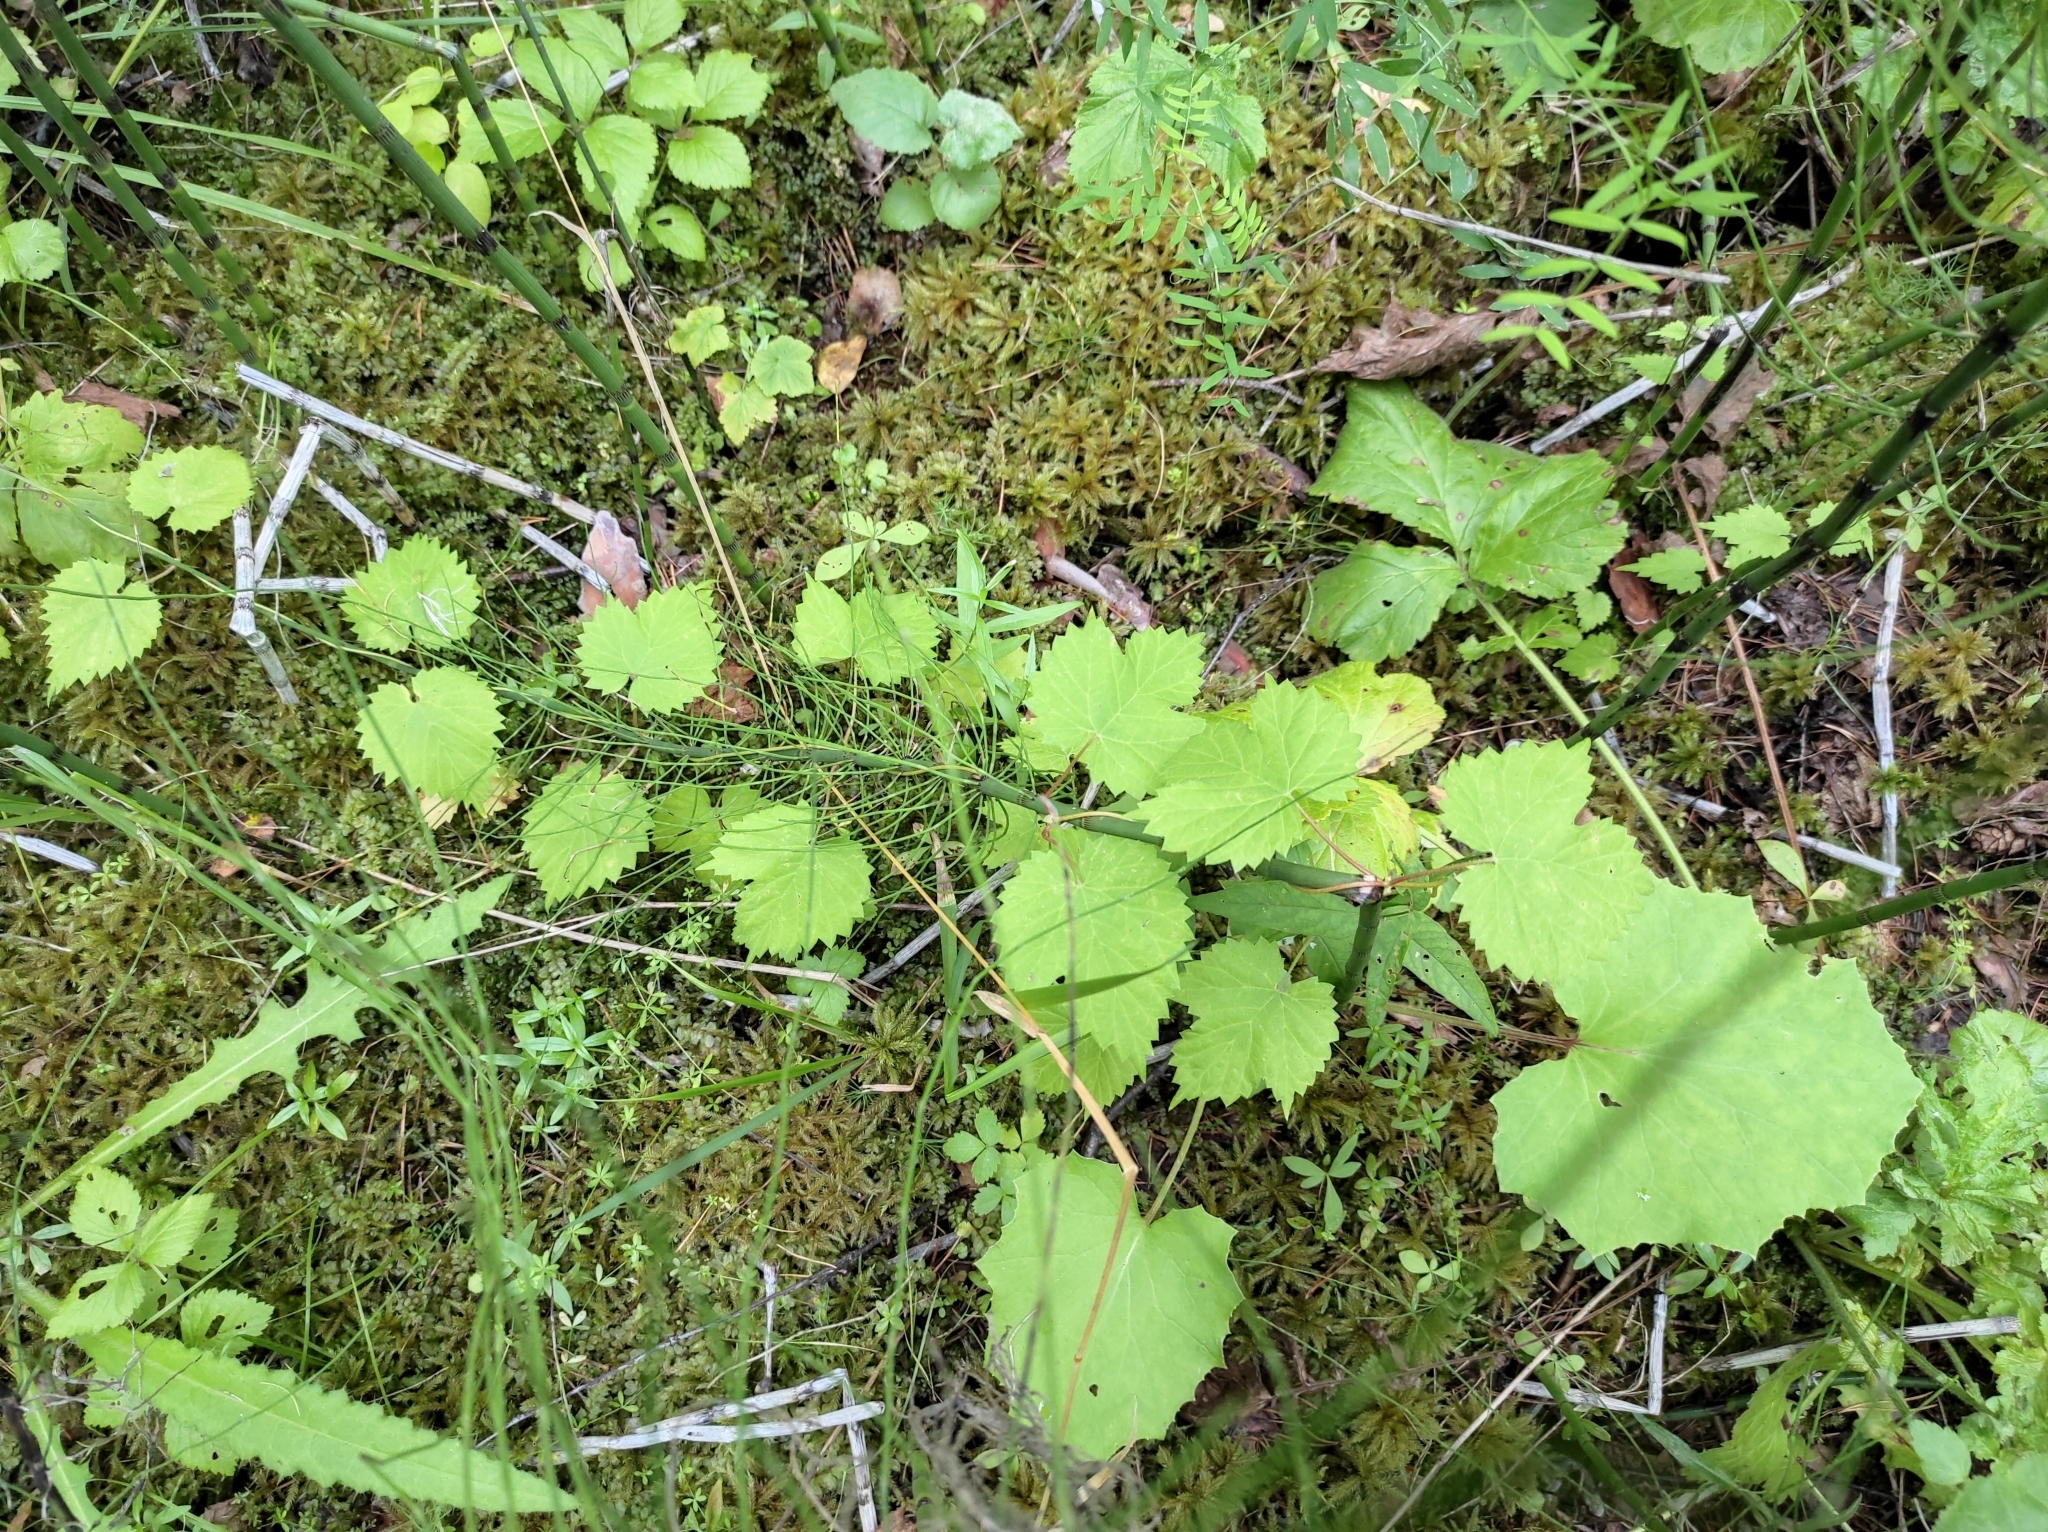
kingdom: Plantae
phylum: Tracheophyta
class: Magnoliopsida
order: Rosales
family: Cannabaceae
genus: Humulus
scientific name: Humulus lupulus
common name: Hop
